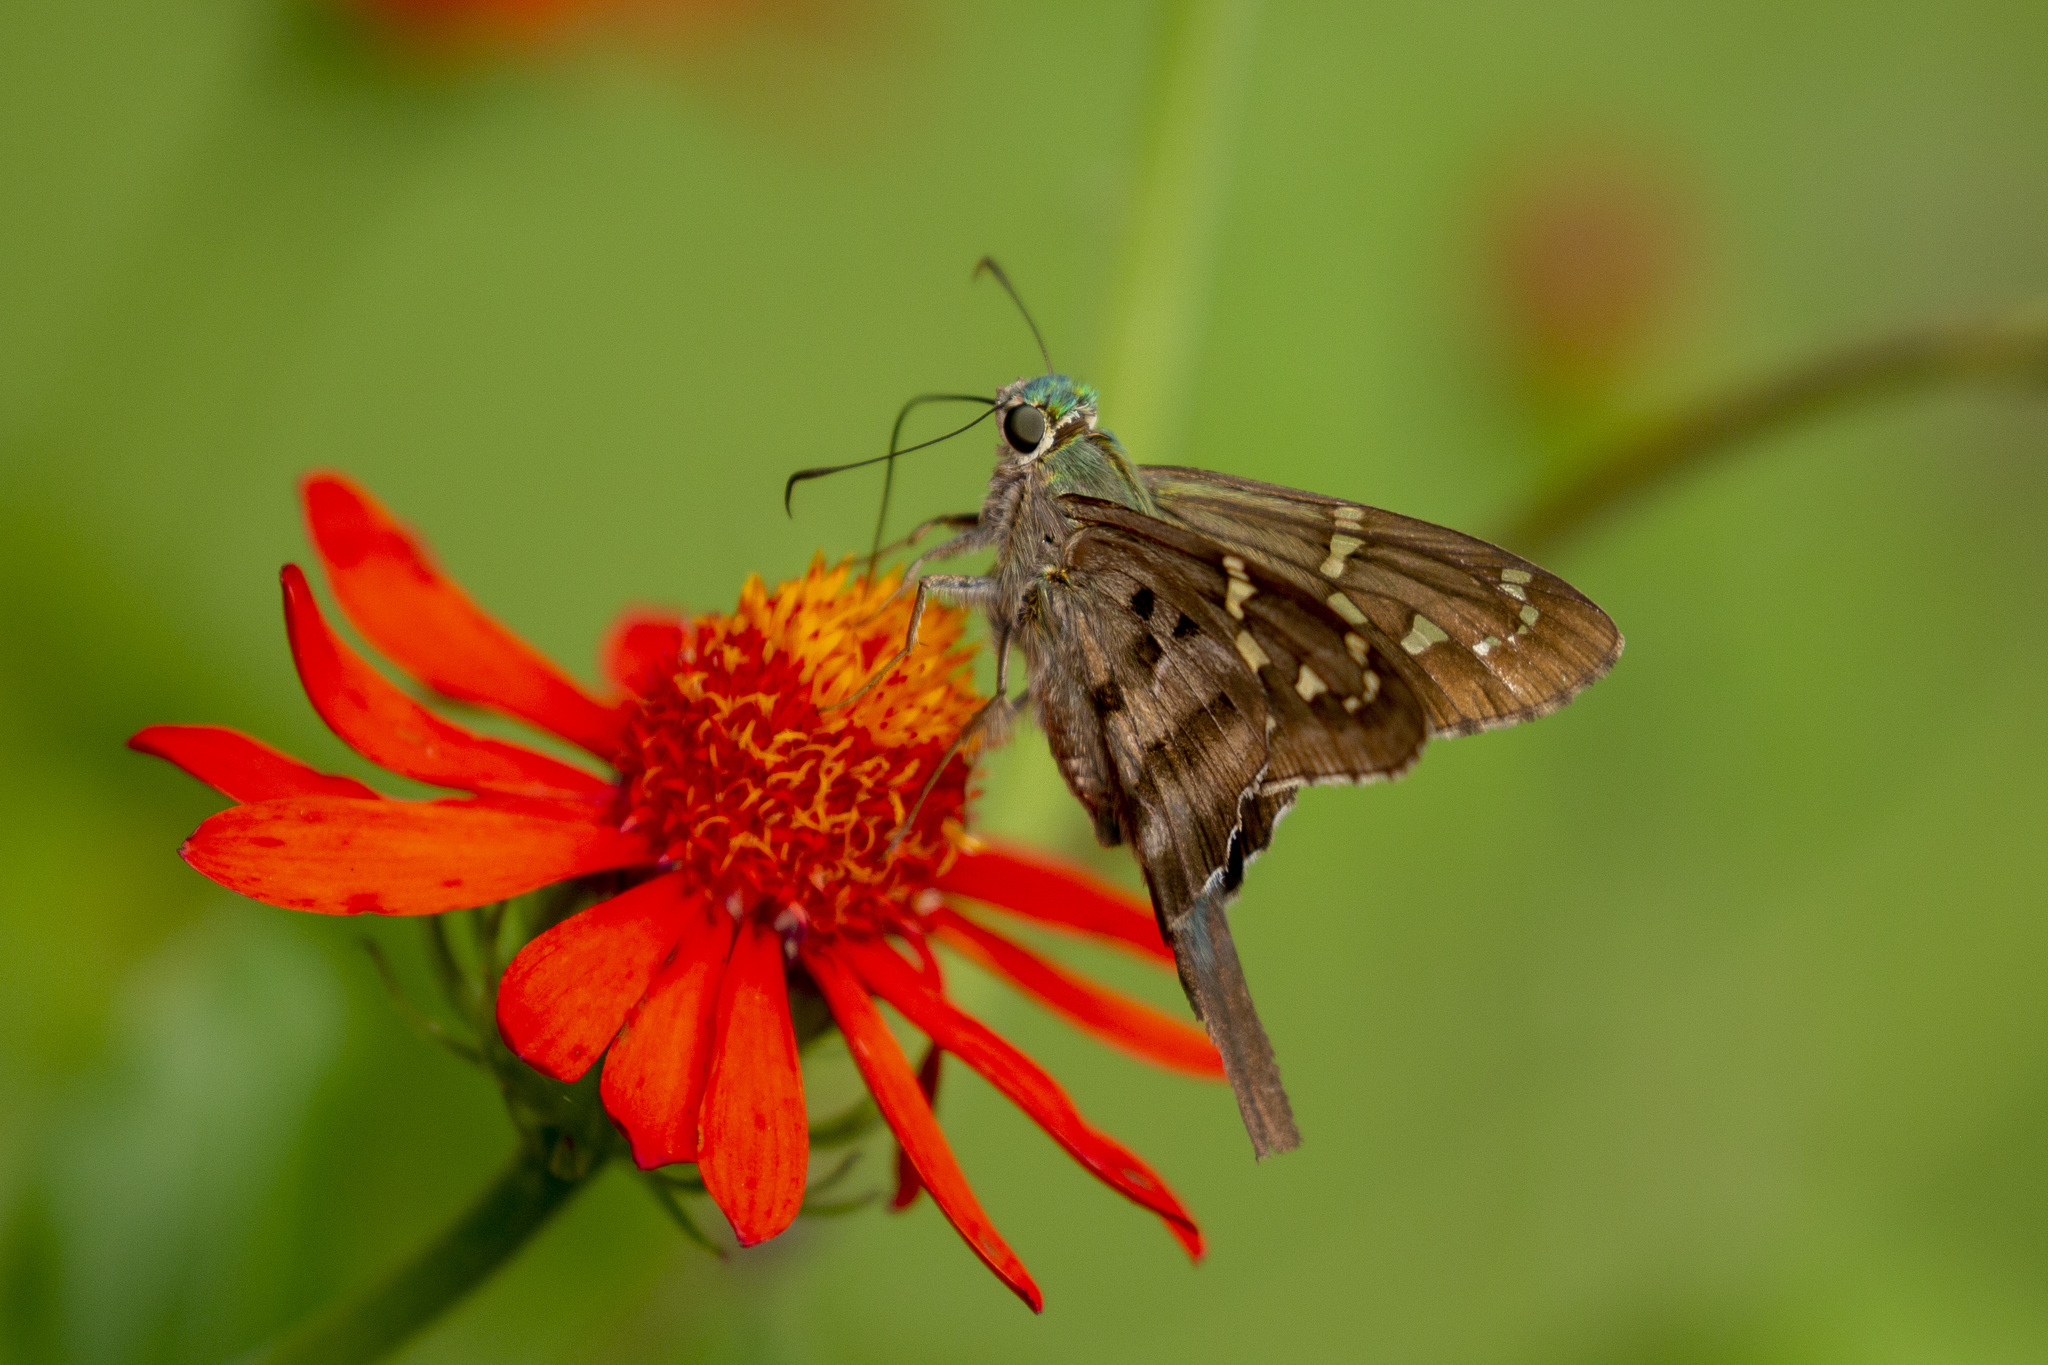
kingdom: Animalia
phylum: Arthropoda
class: Insecta
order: Lepidoptera
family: Hesperiidae
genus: Urbanus
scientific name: Urbanus proteus
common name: Long-tailed skipper
